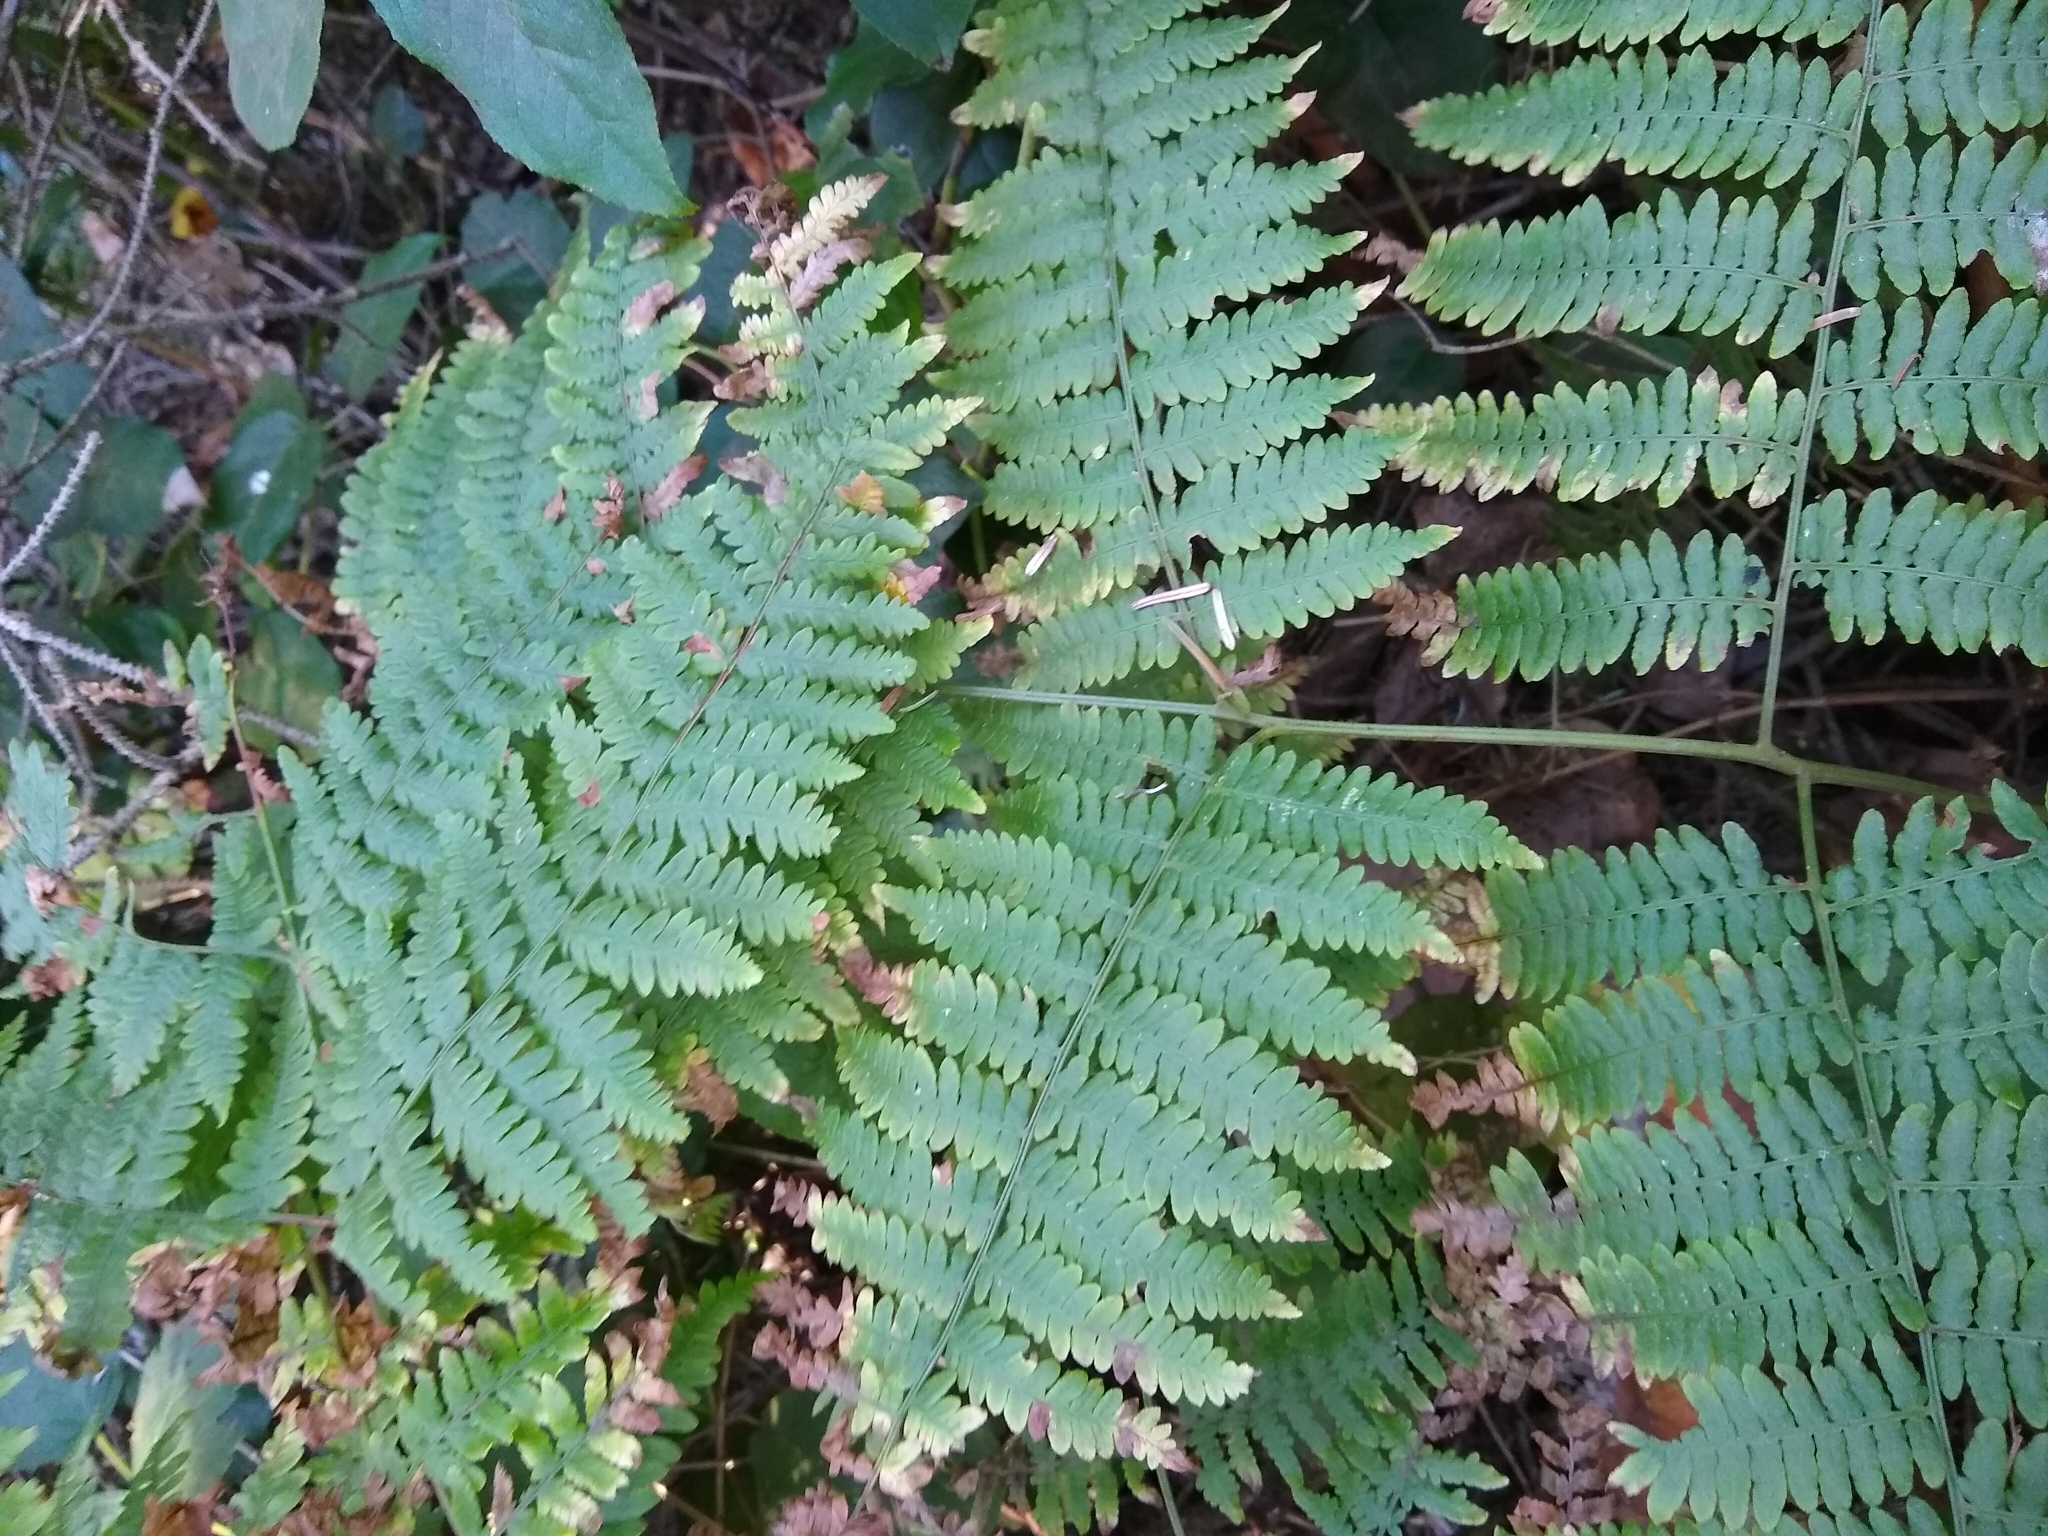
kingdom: Plantae
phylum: Tracheophyta
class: Polypodiopsida
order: Polypodiales
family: Dennstaedtiaceae
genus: Pteridium
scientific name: Pteridium aquilinum
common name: Bracken
